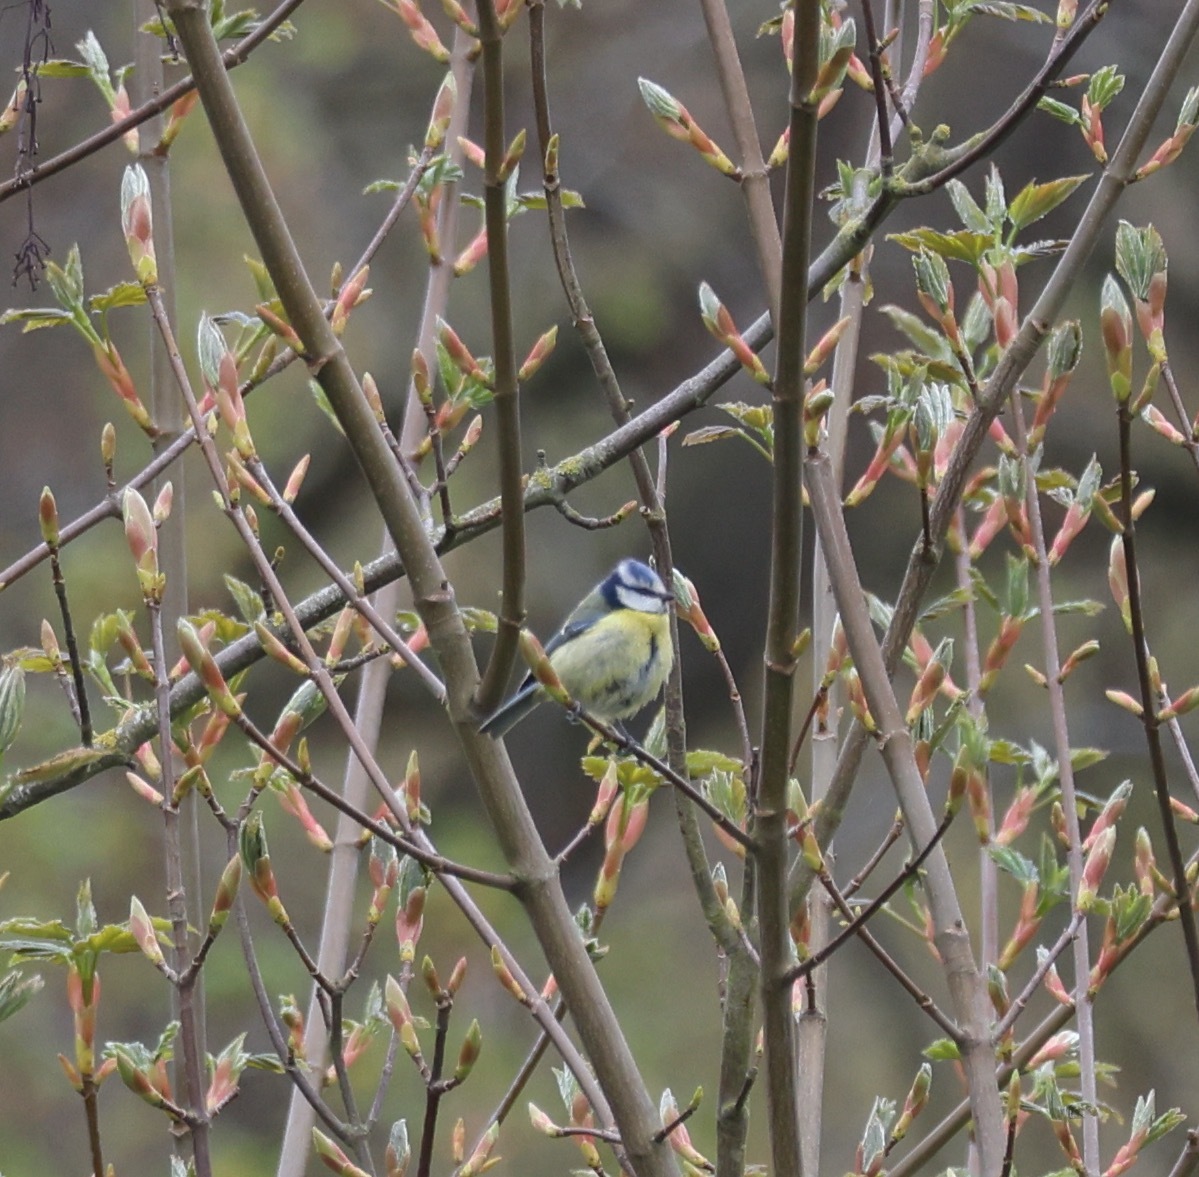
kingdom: Animalia
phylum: Chordata
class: Aves
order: Passeriformes
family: Paridae
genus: Cyanistes
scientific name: Cyanistes caeruleus
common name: Eurasian blue tit
